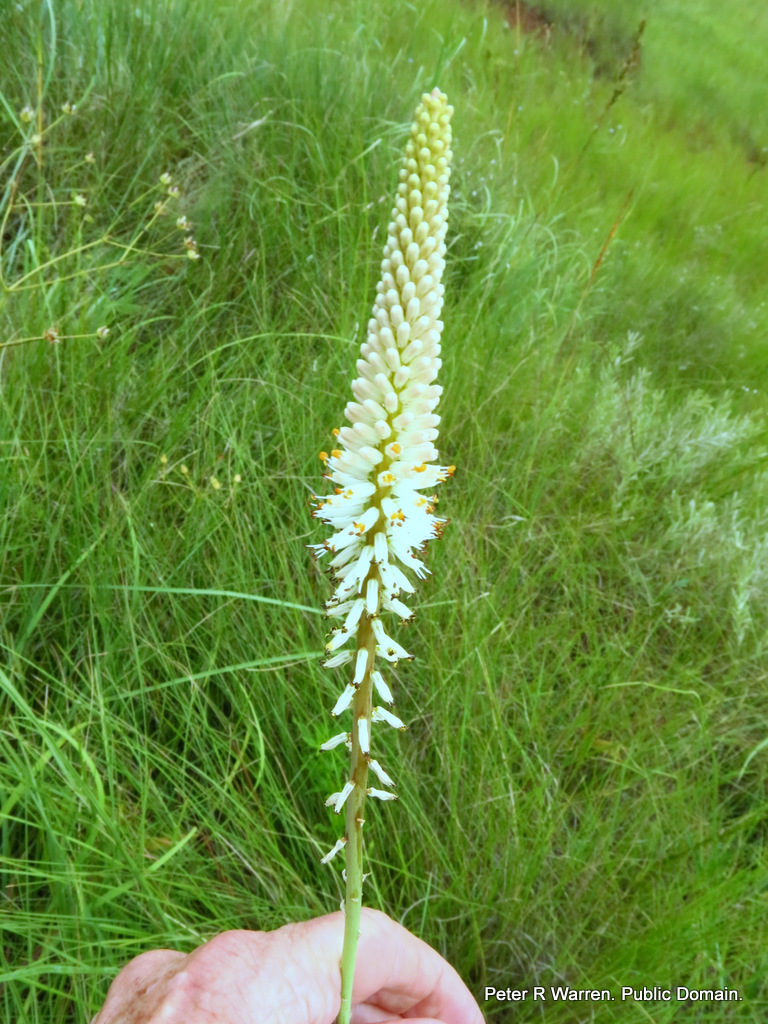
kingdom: Plantae
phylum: Tracheophyta
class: Liliopsida
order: Asparagales
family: Asphodelaceae
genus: Kniphofia
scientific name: Kniphofia buchananii
